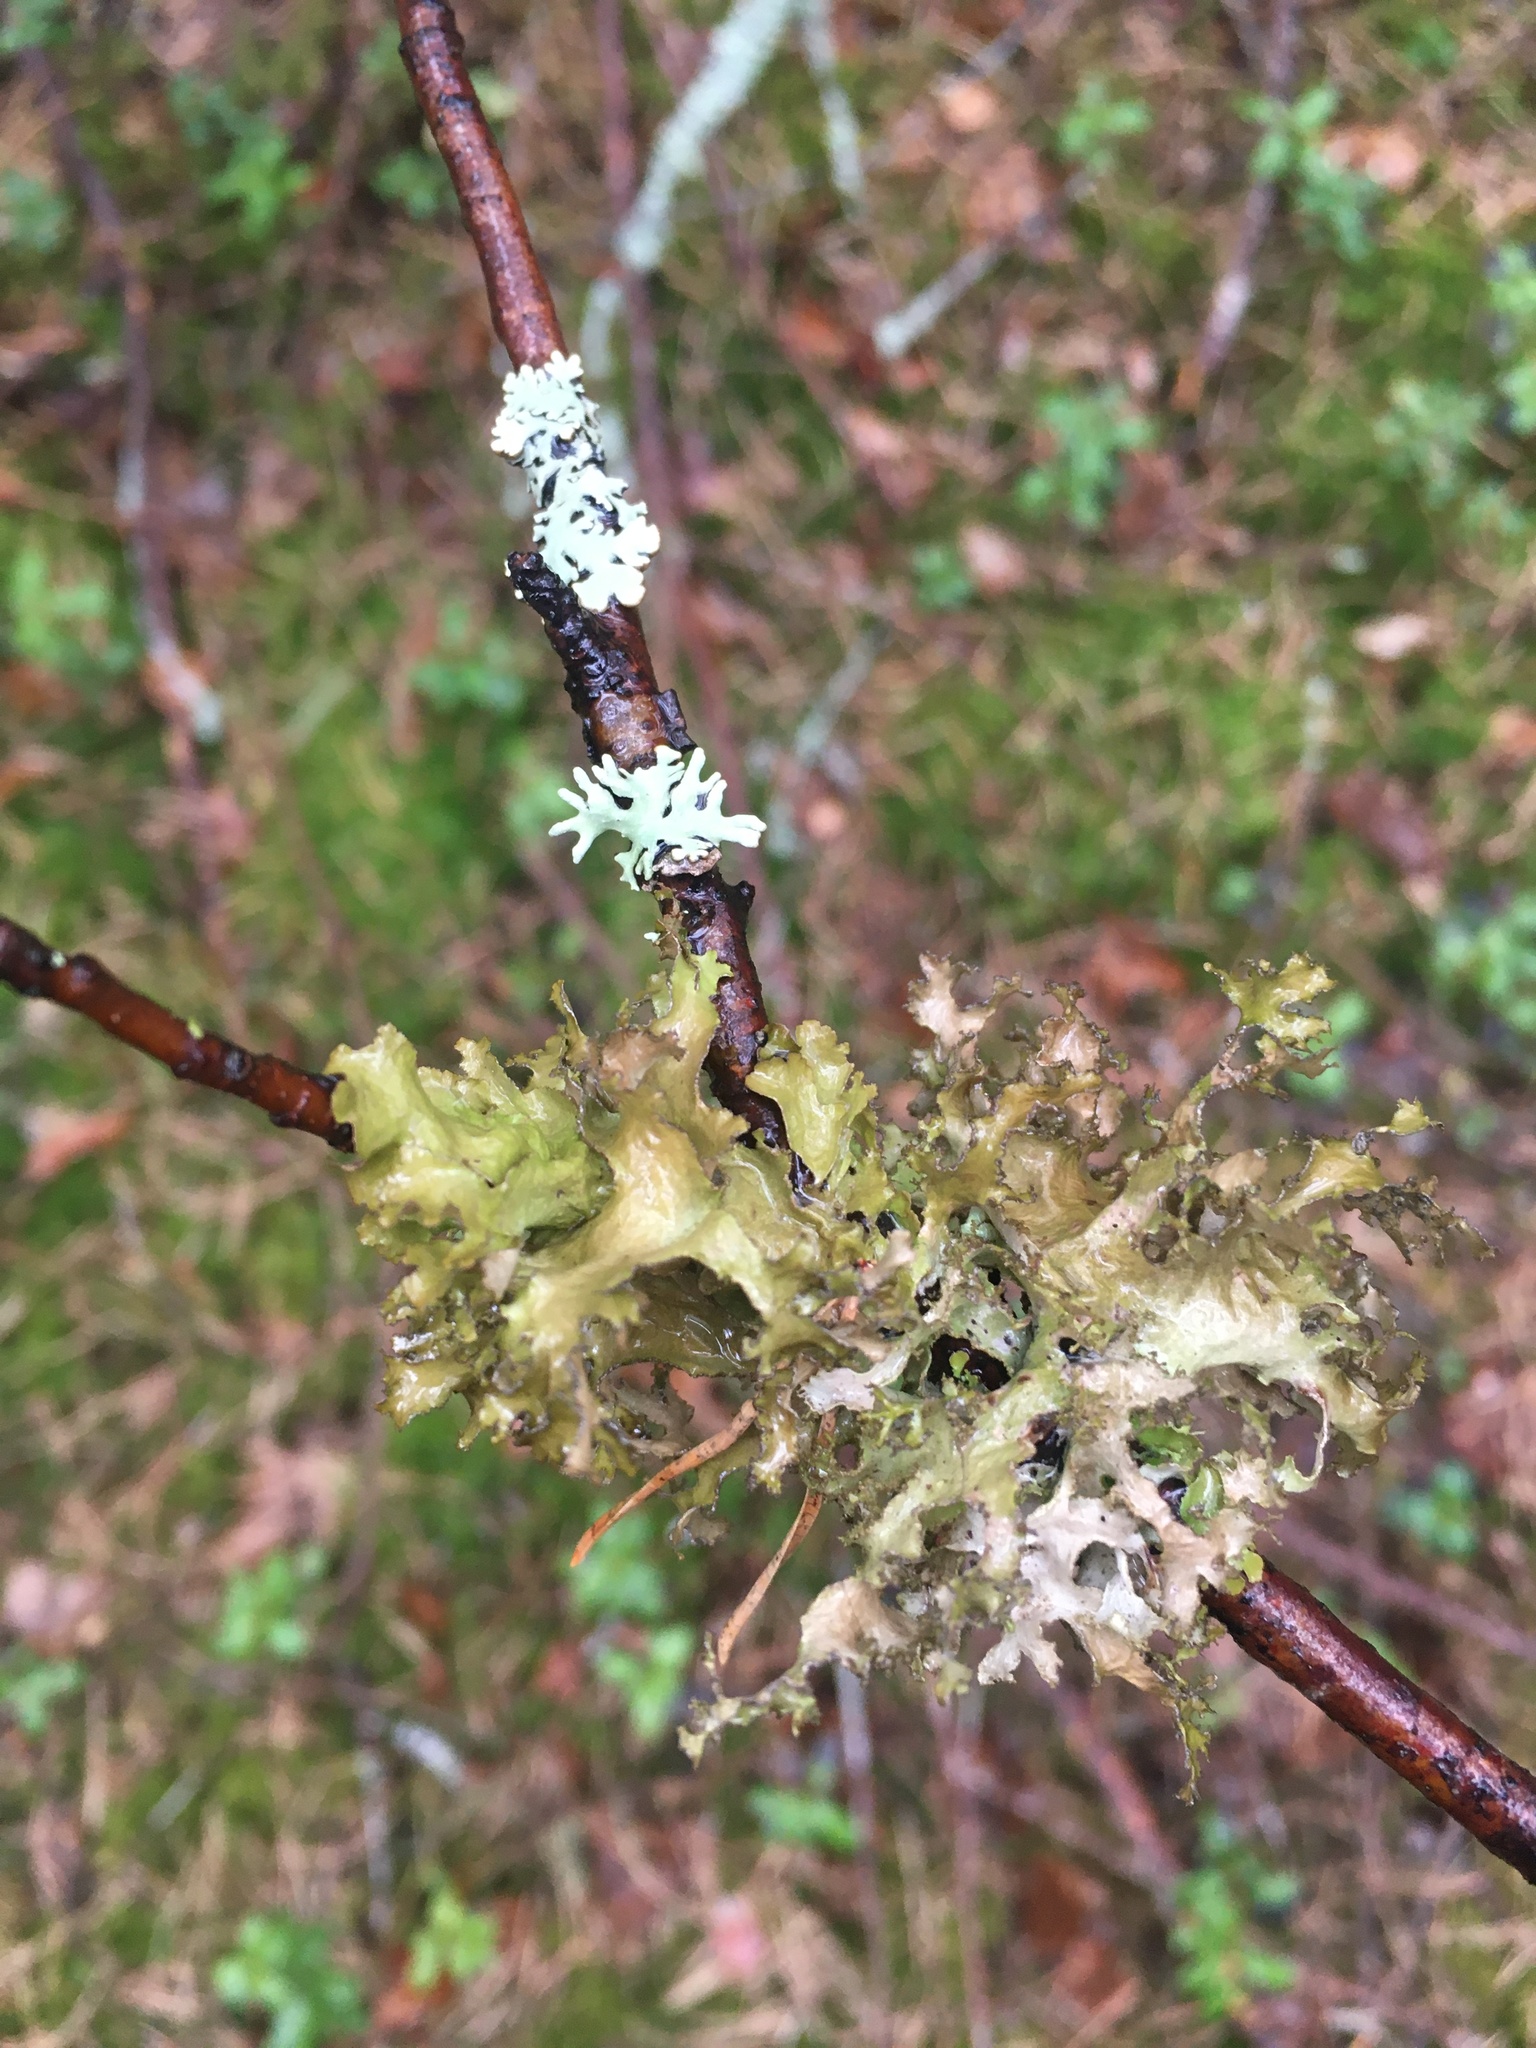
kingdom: Fungi
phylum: Ascomycota
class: Lecanoromycetes
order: Lecanorales
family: Parmeliaceae
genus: Nephromopsis
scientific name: Nephromopsis chlorophylla
